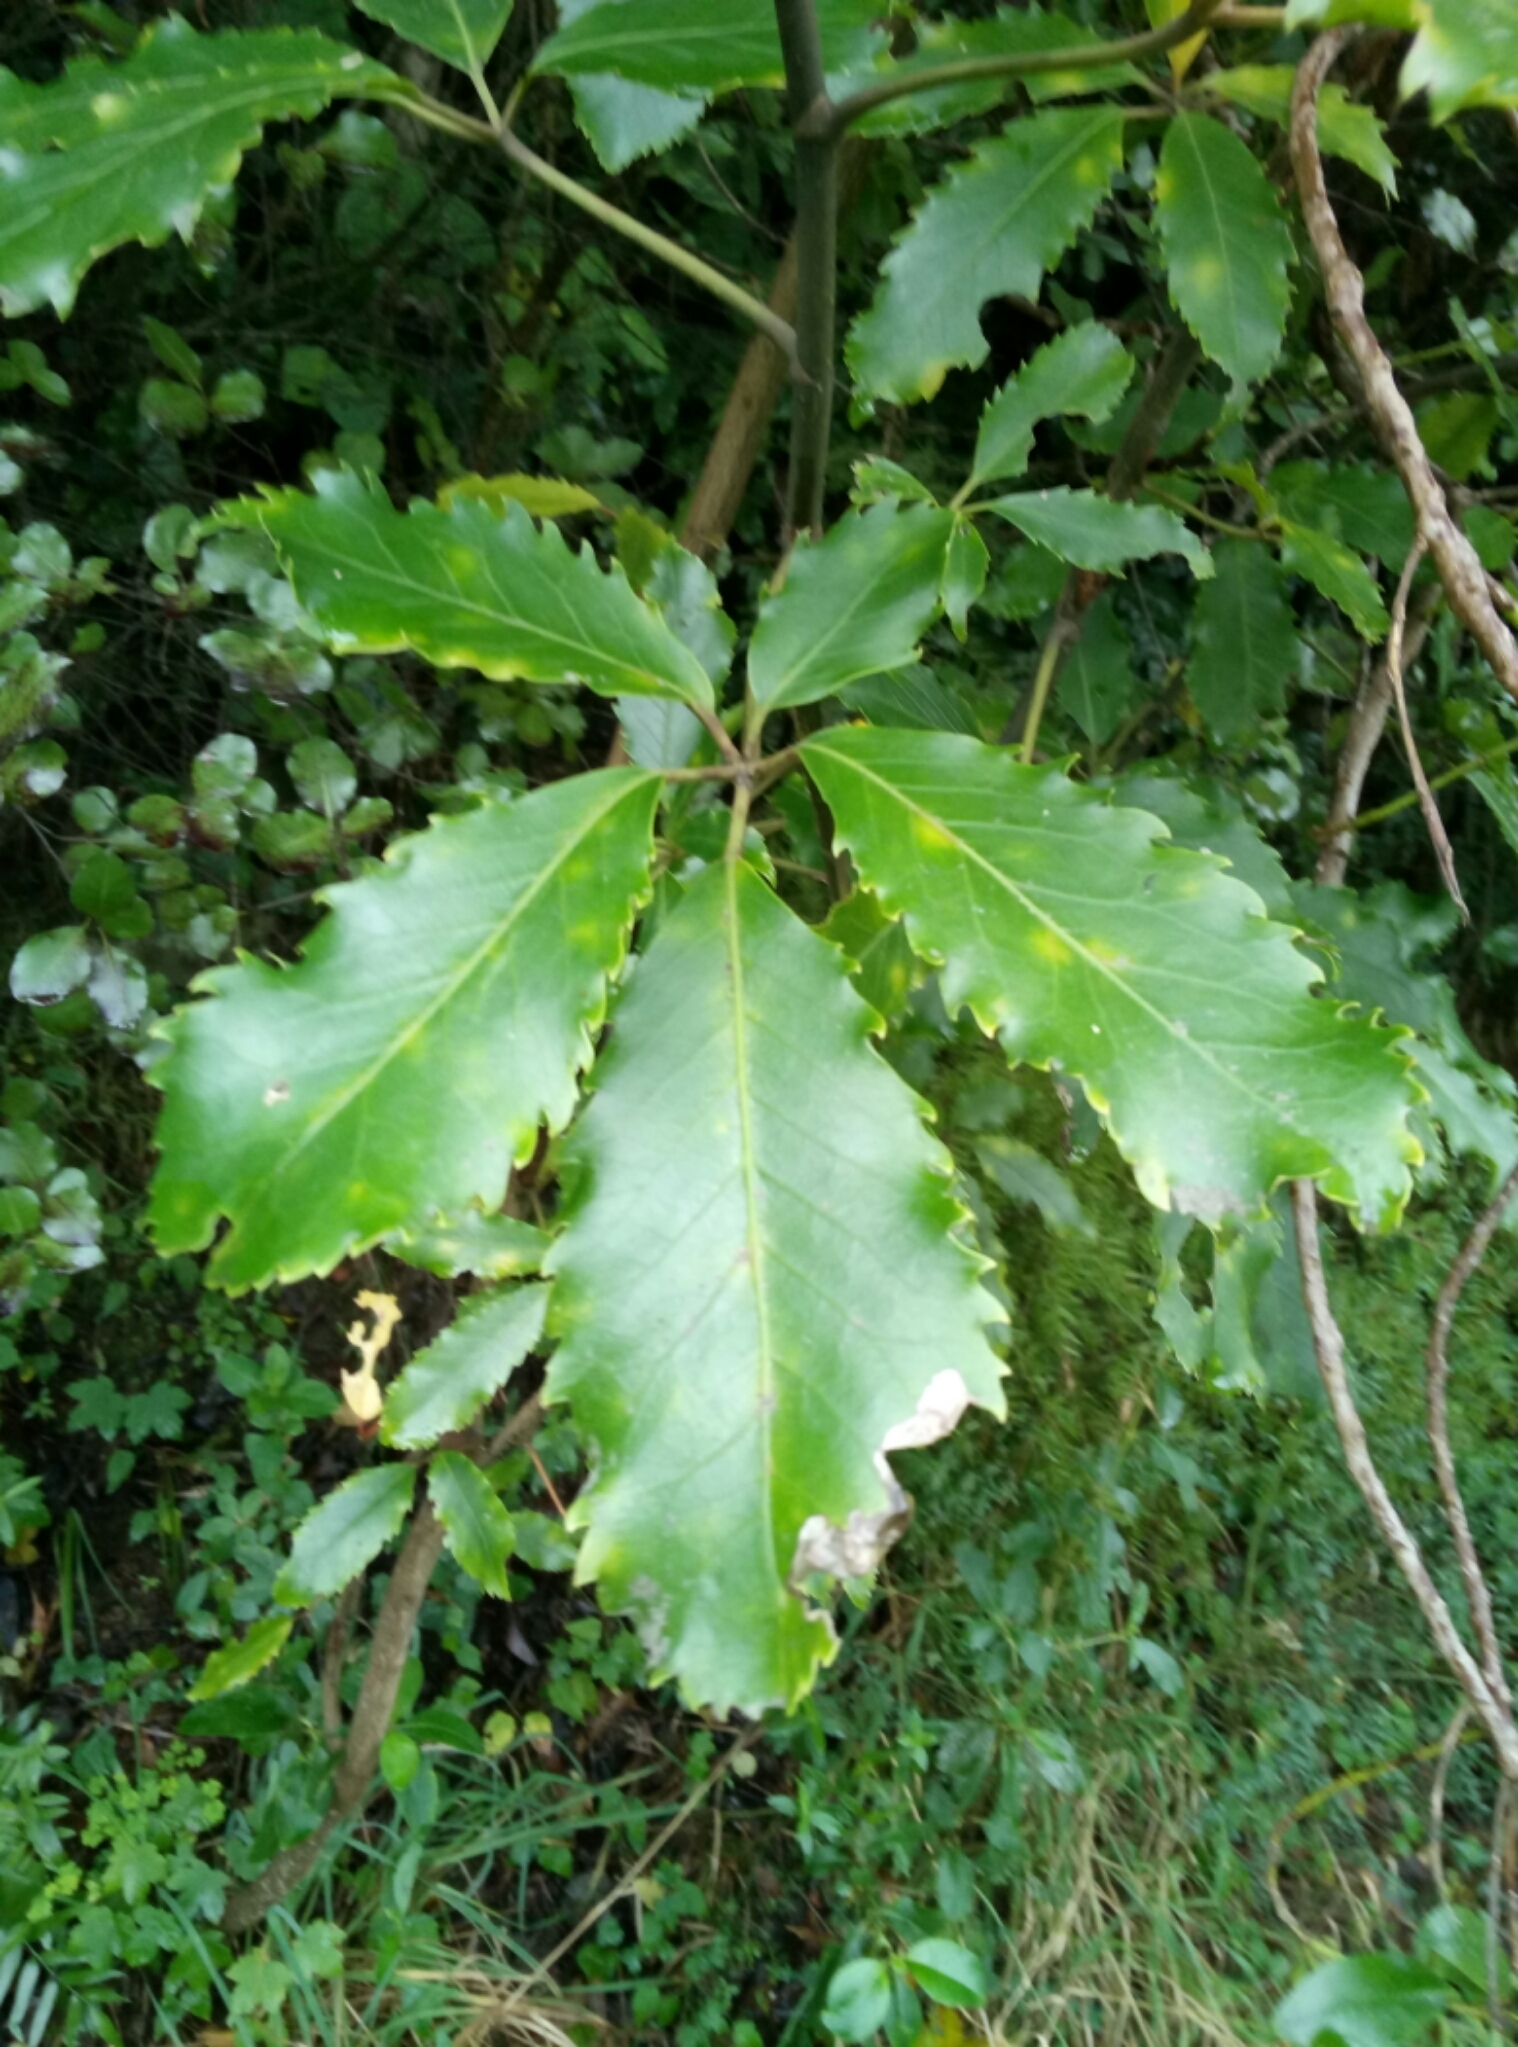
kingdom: Plantae
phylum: Tracheophyta
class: Magnoliopsida
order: Apiales
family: Araliaceae
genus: Neopanax
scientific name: Neopanax arboreus
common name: Five-fingers
